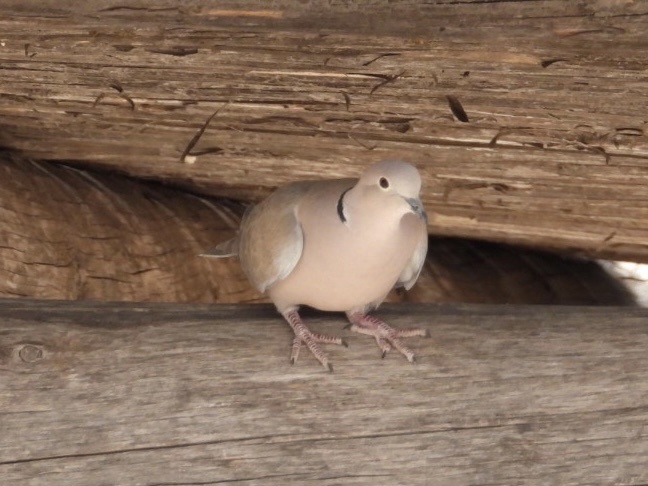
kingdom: Animalia
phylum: Chordata
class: Aves
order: Columbiformes
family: Columbidae
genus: Streptopelia
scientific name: Streptopelia decaocto
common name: Eurasian collared dove
